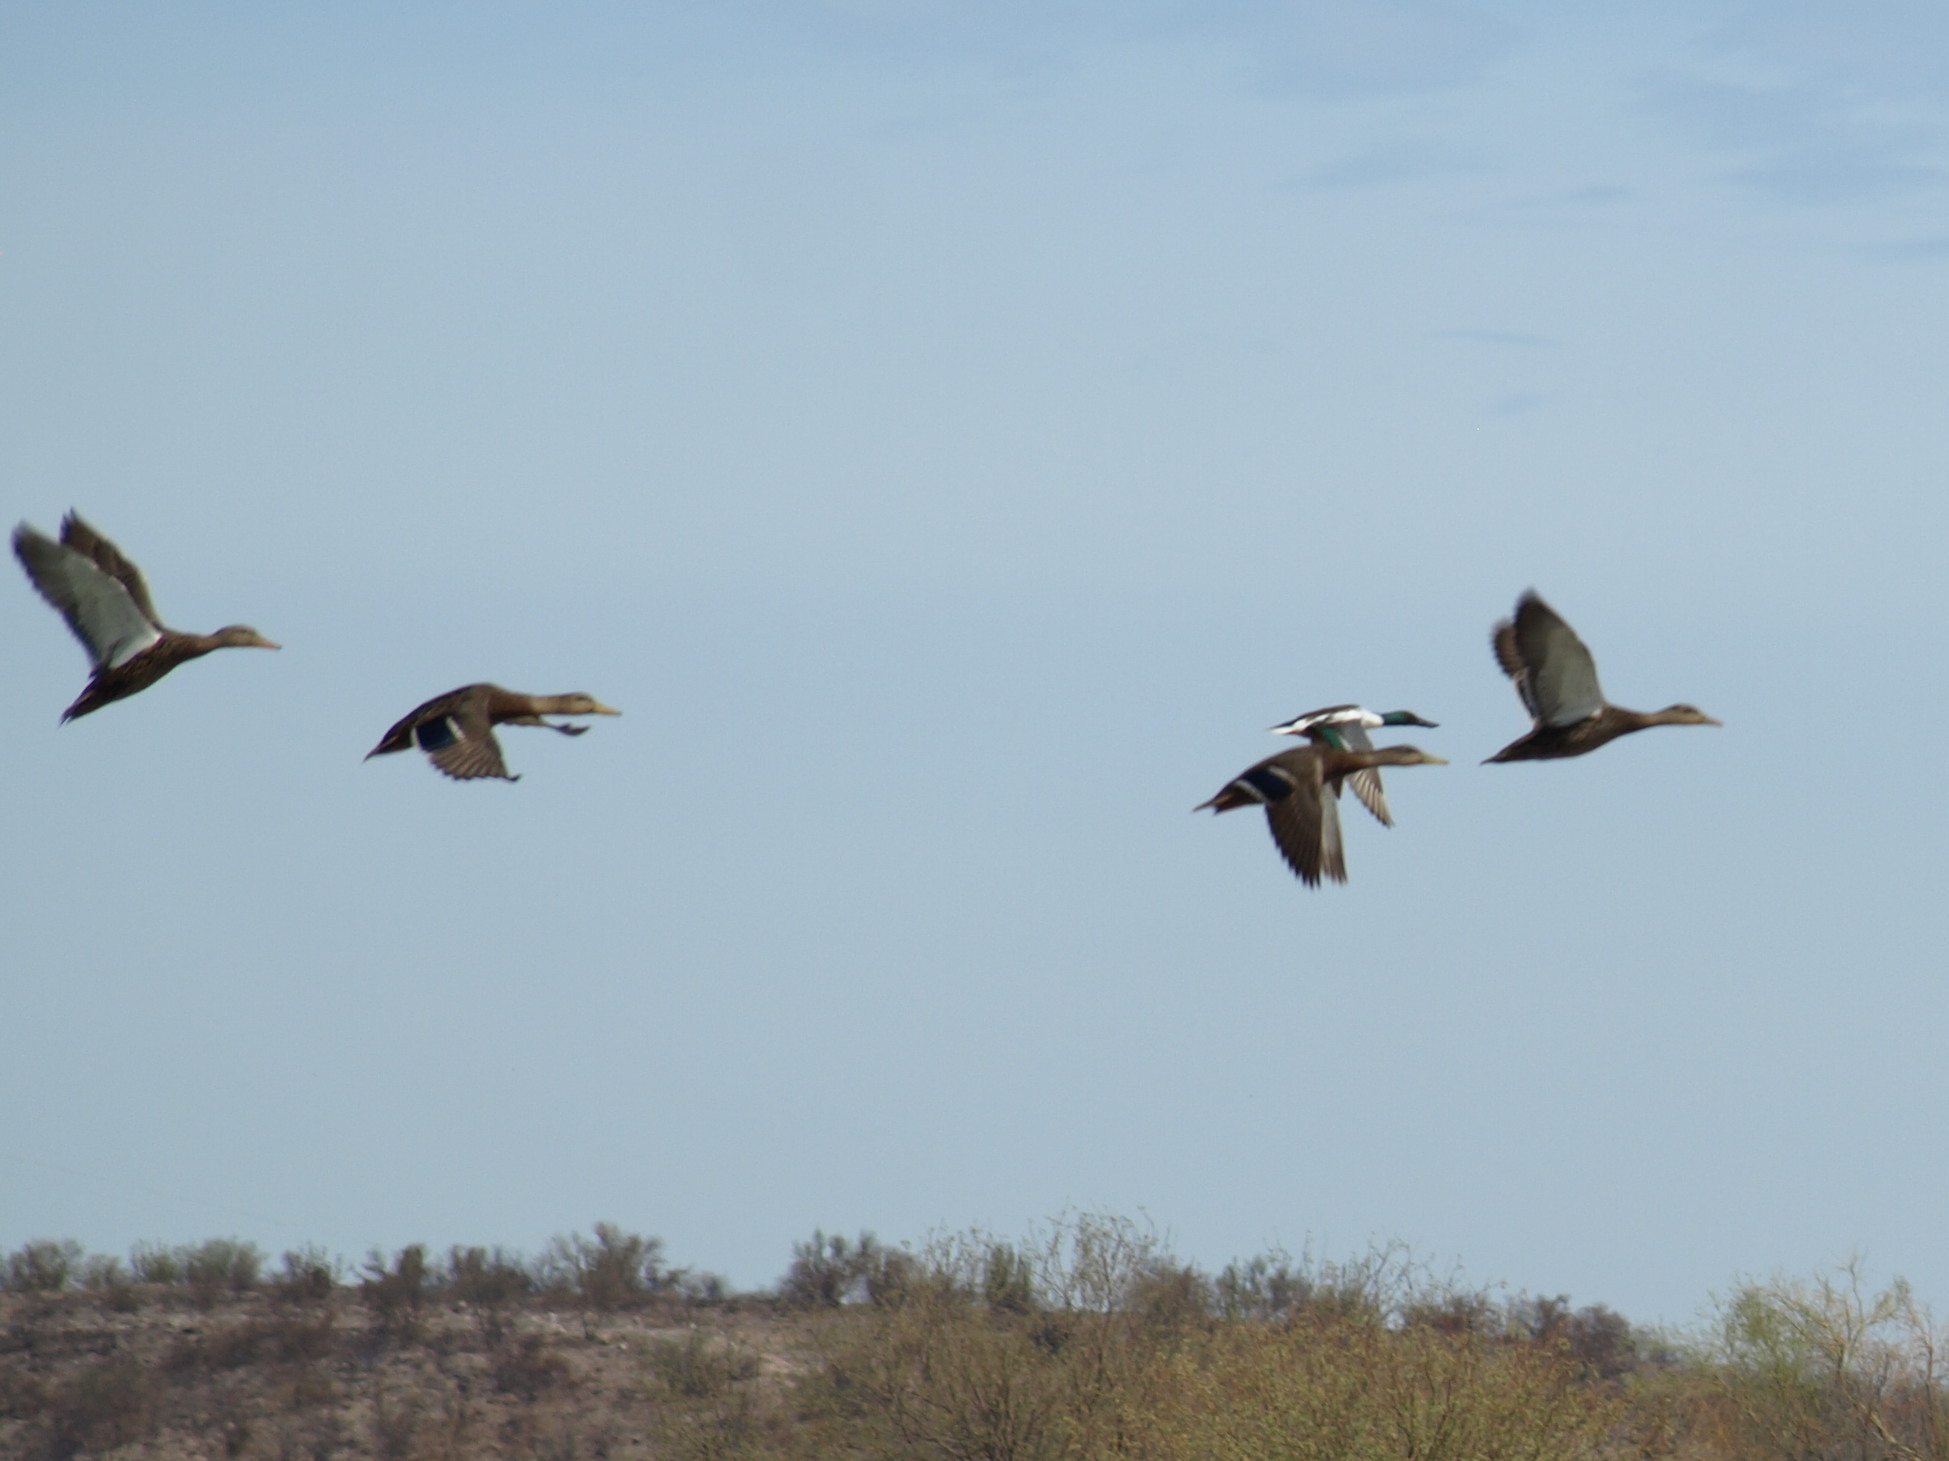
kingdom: Animalia
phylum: Chordata
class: Aves
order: Anseriformes
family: Anatidae
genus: Spatula
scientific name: Spatula clypeata
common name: Northern shoveler
